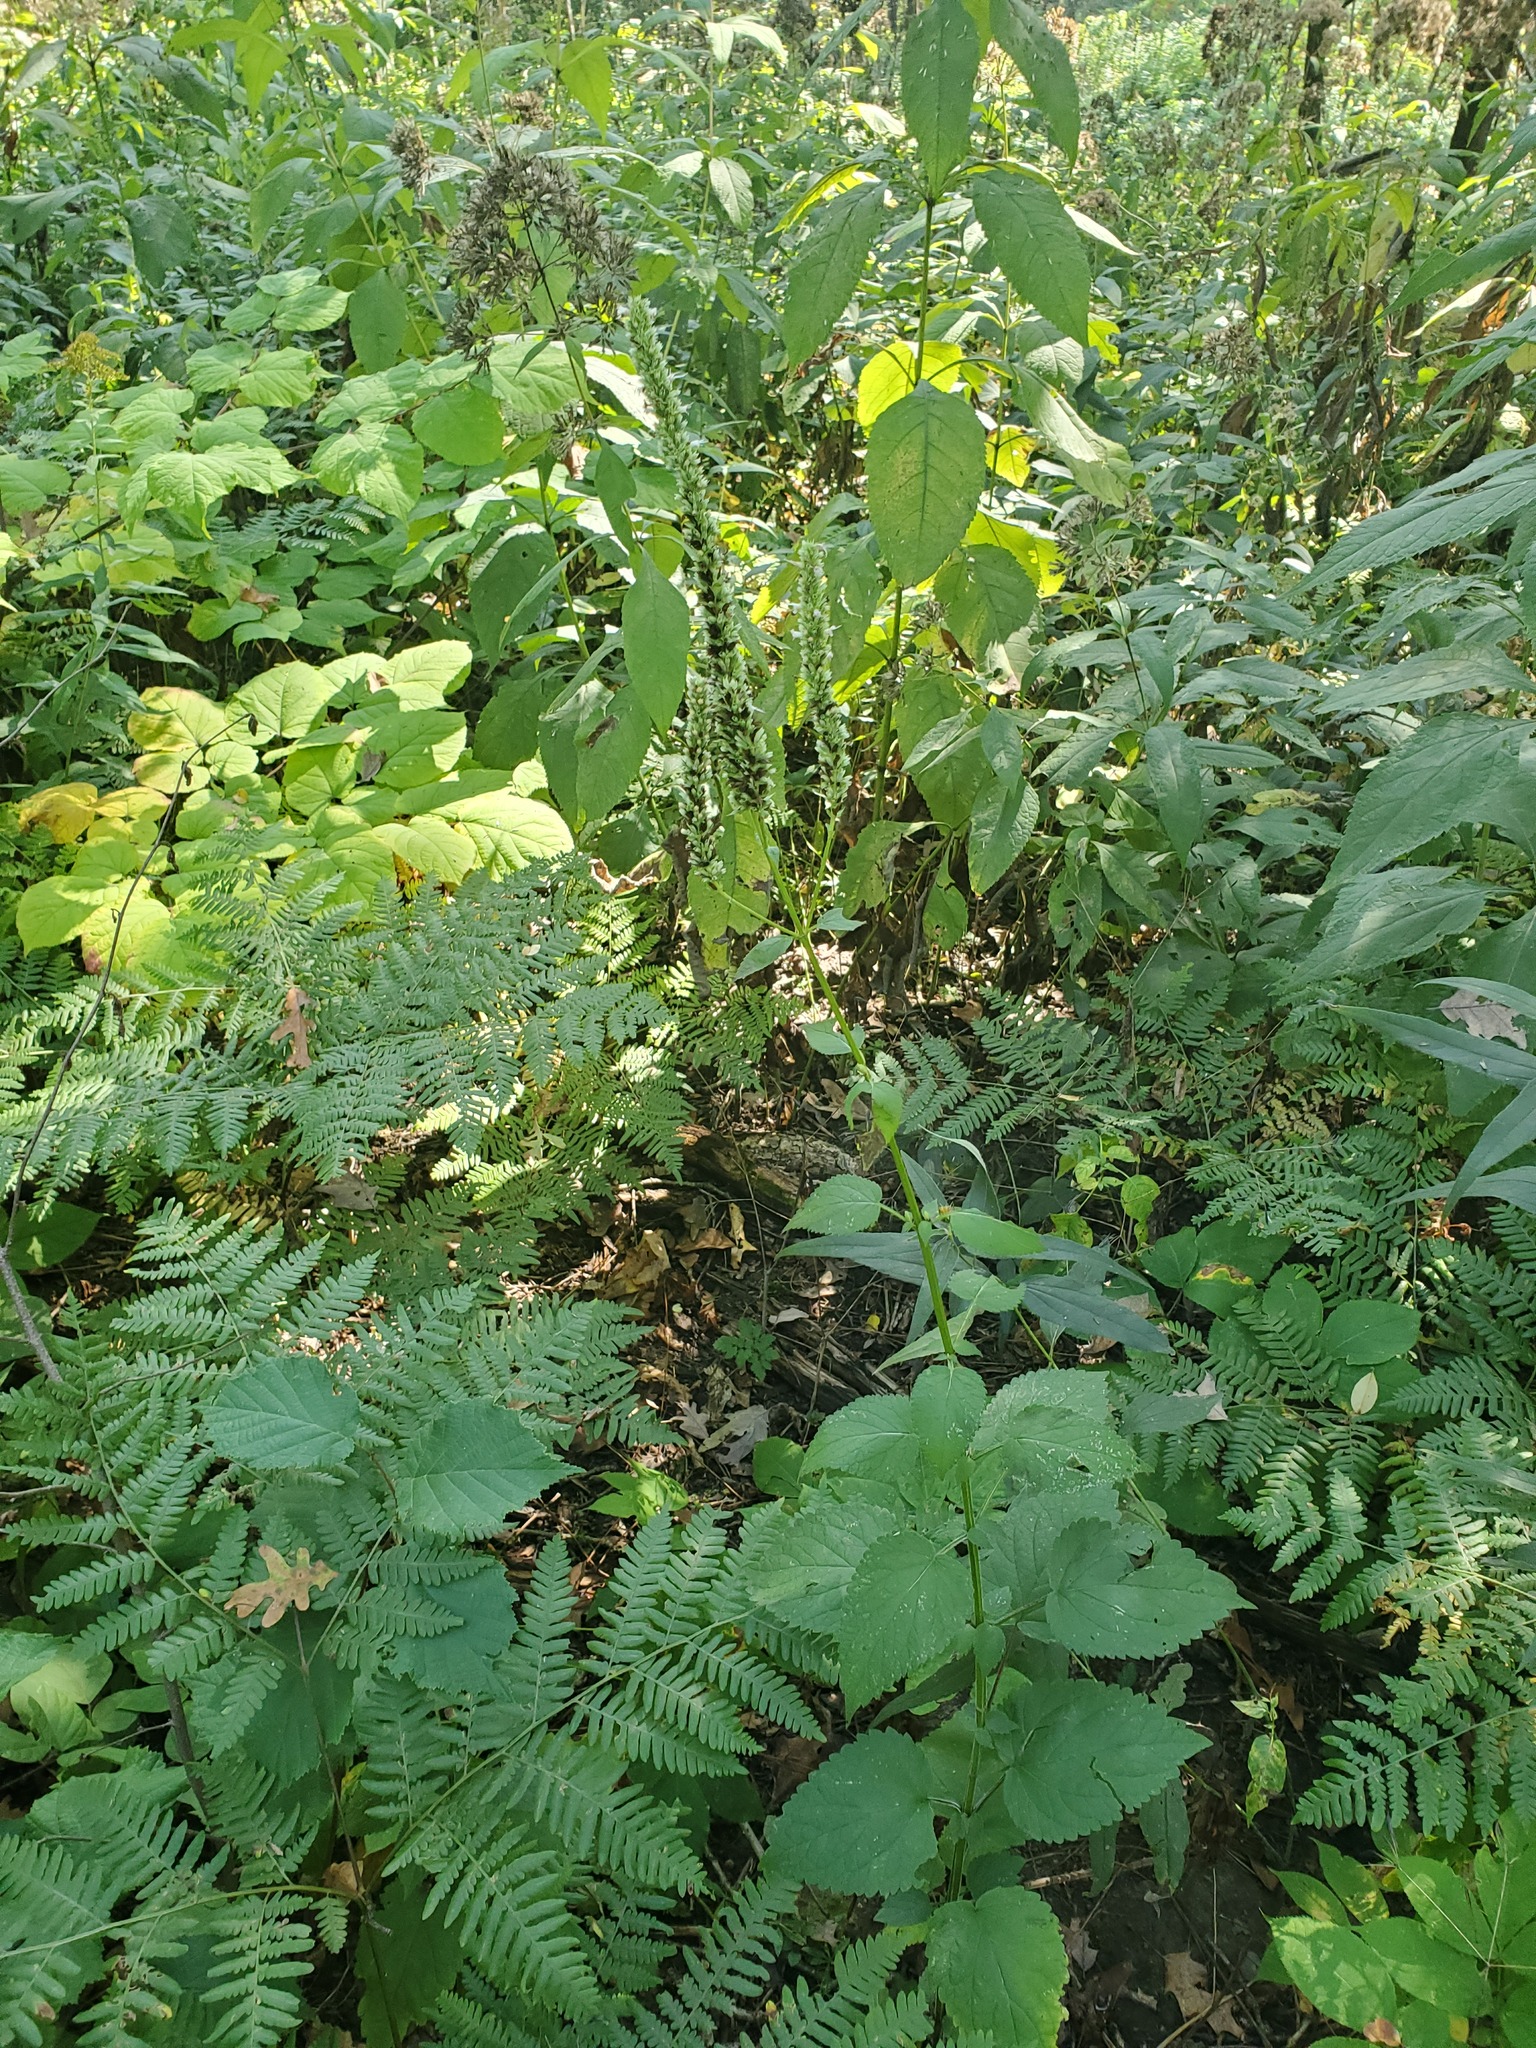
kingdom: Plantae
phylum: Tracheophyta
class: Magnoliopsida
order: Lamiales
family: Lamiaceae
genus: Agastache
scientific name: Agastache scrophulariifolia
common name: Figwort giant hyssop
